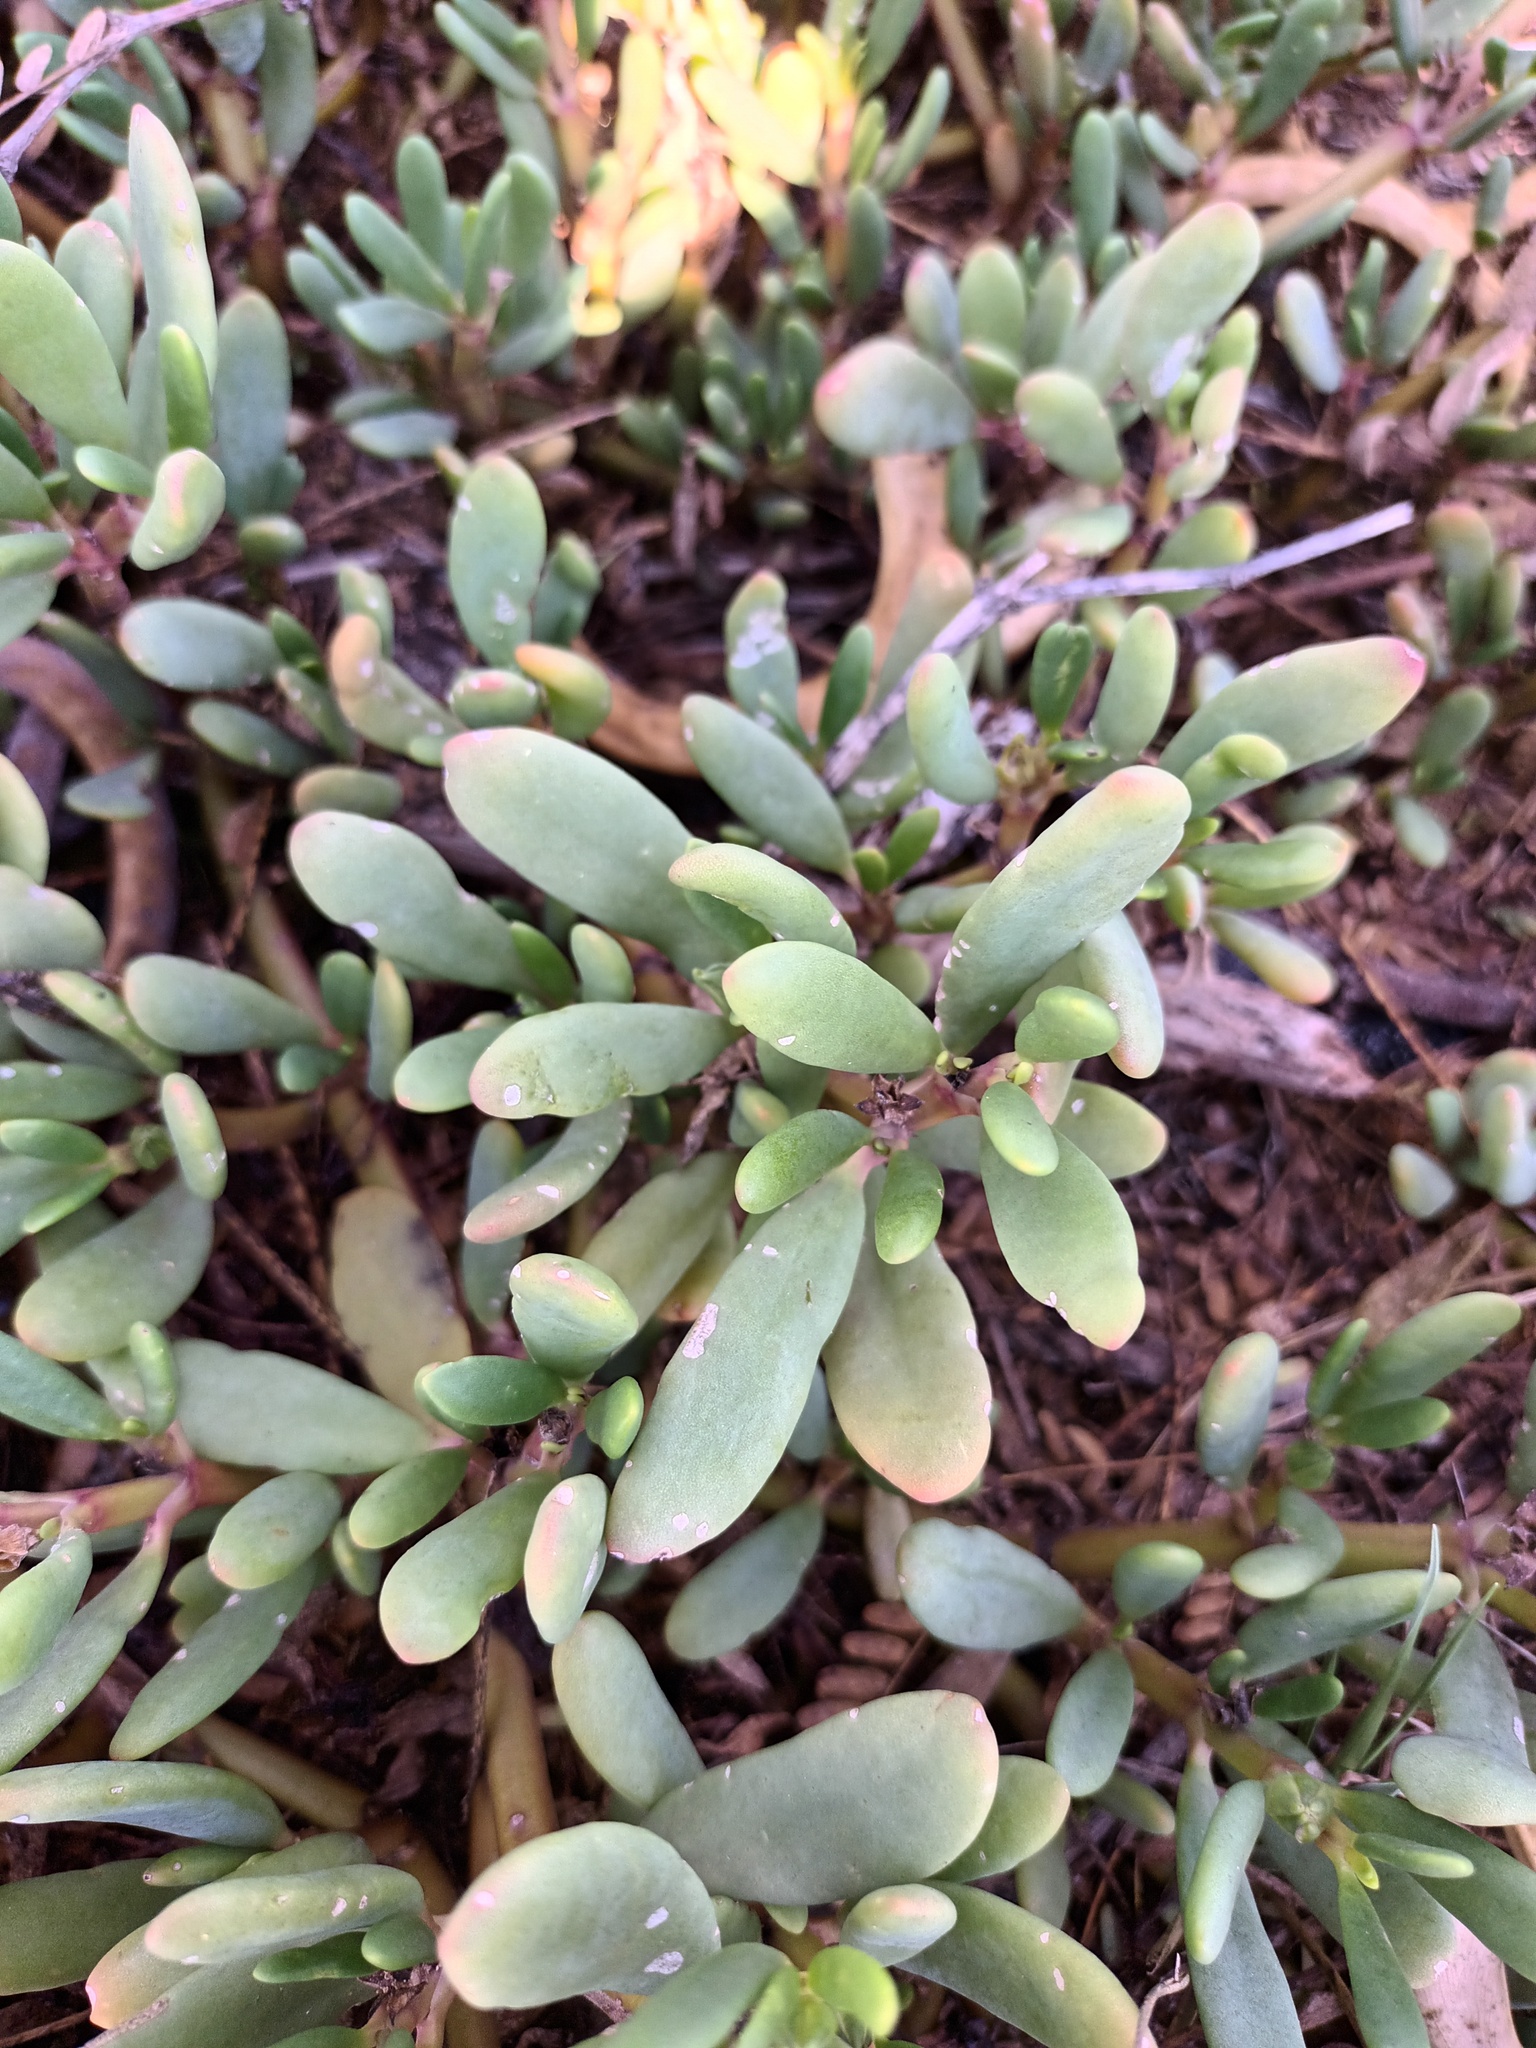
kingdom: Plantae
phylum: Tracheophyta
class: Magnoliopsida
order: Caryophyllales
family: Aizoaceae
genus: Sesuvium
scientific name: Sesuvium portulacastrum
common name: Sea-purslane
